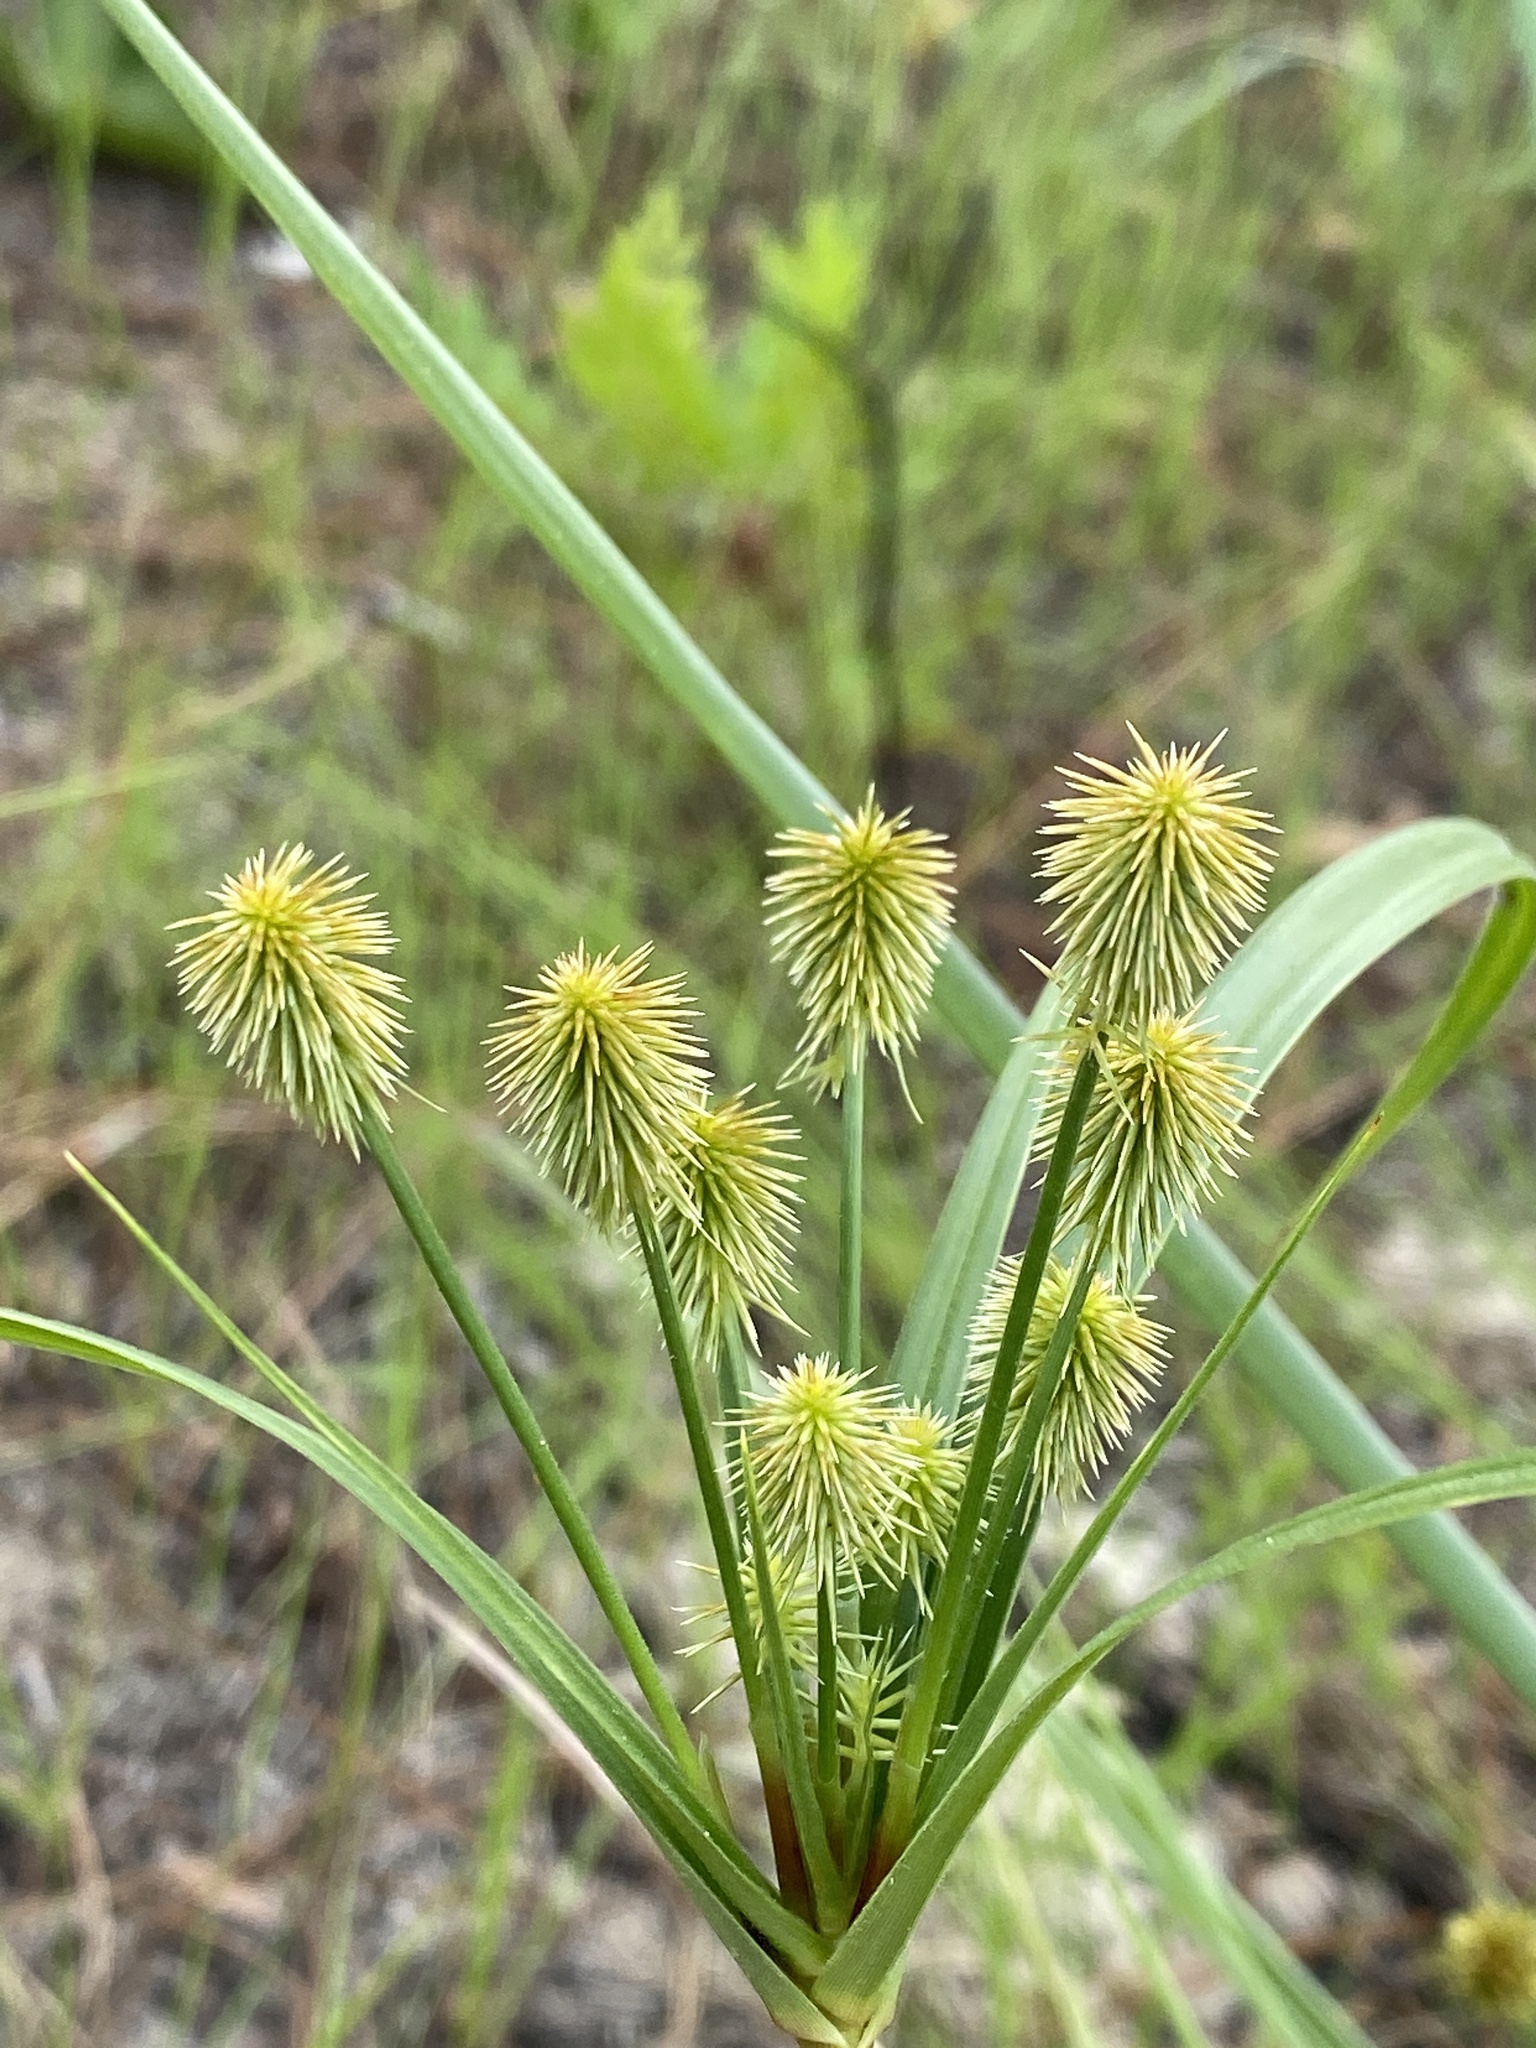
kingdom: Plantae
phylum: Tracheophyta
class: Liliopsida
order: Poales
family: Cyperaceae
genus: Cyperus
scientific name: Cyperus plukenetii
